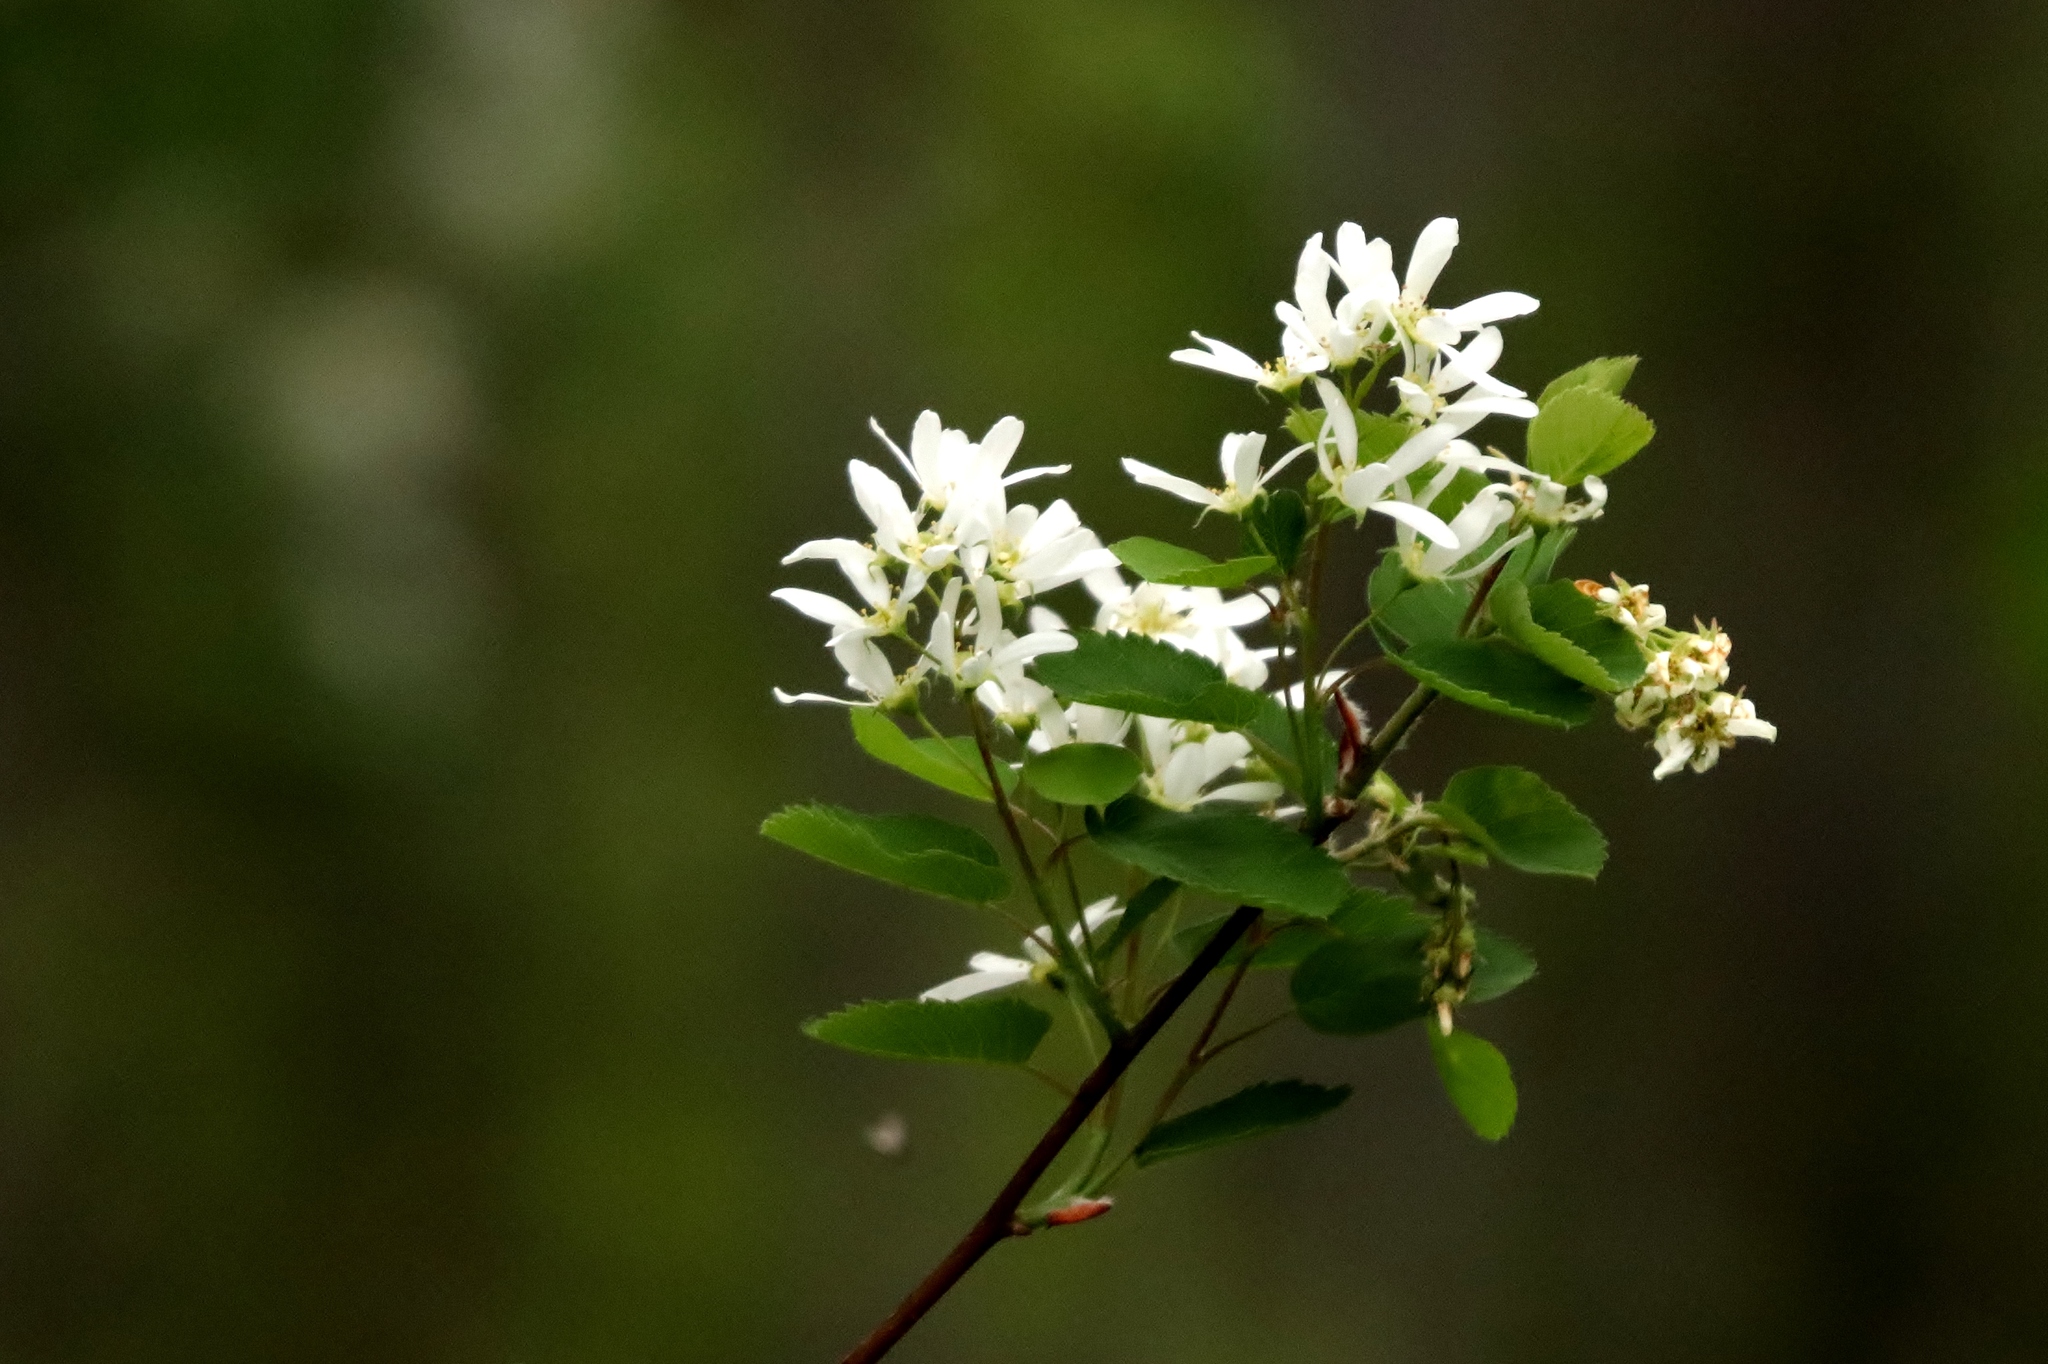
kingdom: Plantae
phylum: Tracheophyta
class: Magnoliopsida
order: Rosales
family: Rosaceae
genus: Amelanchier
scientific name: Amelanchier alnifolia
